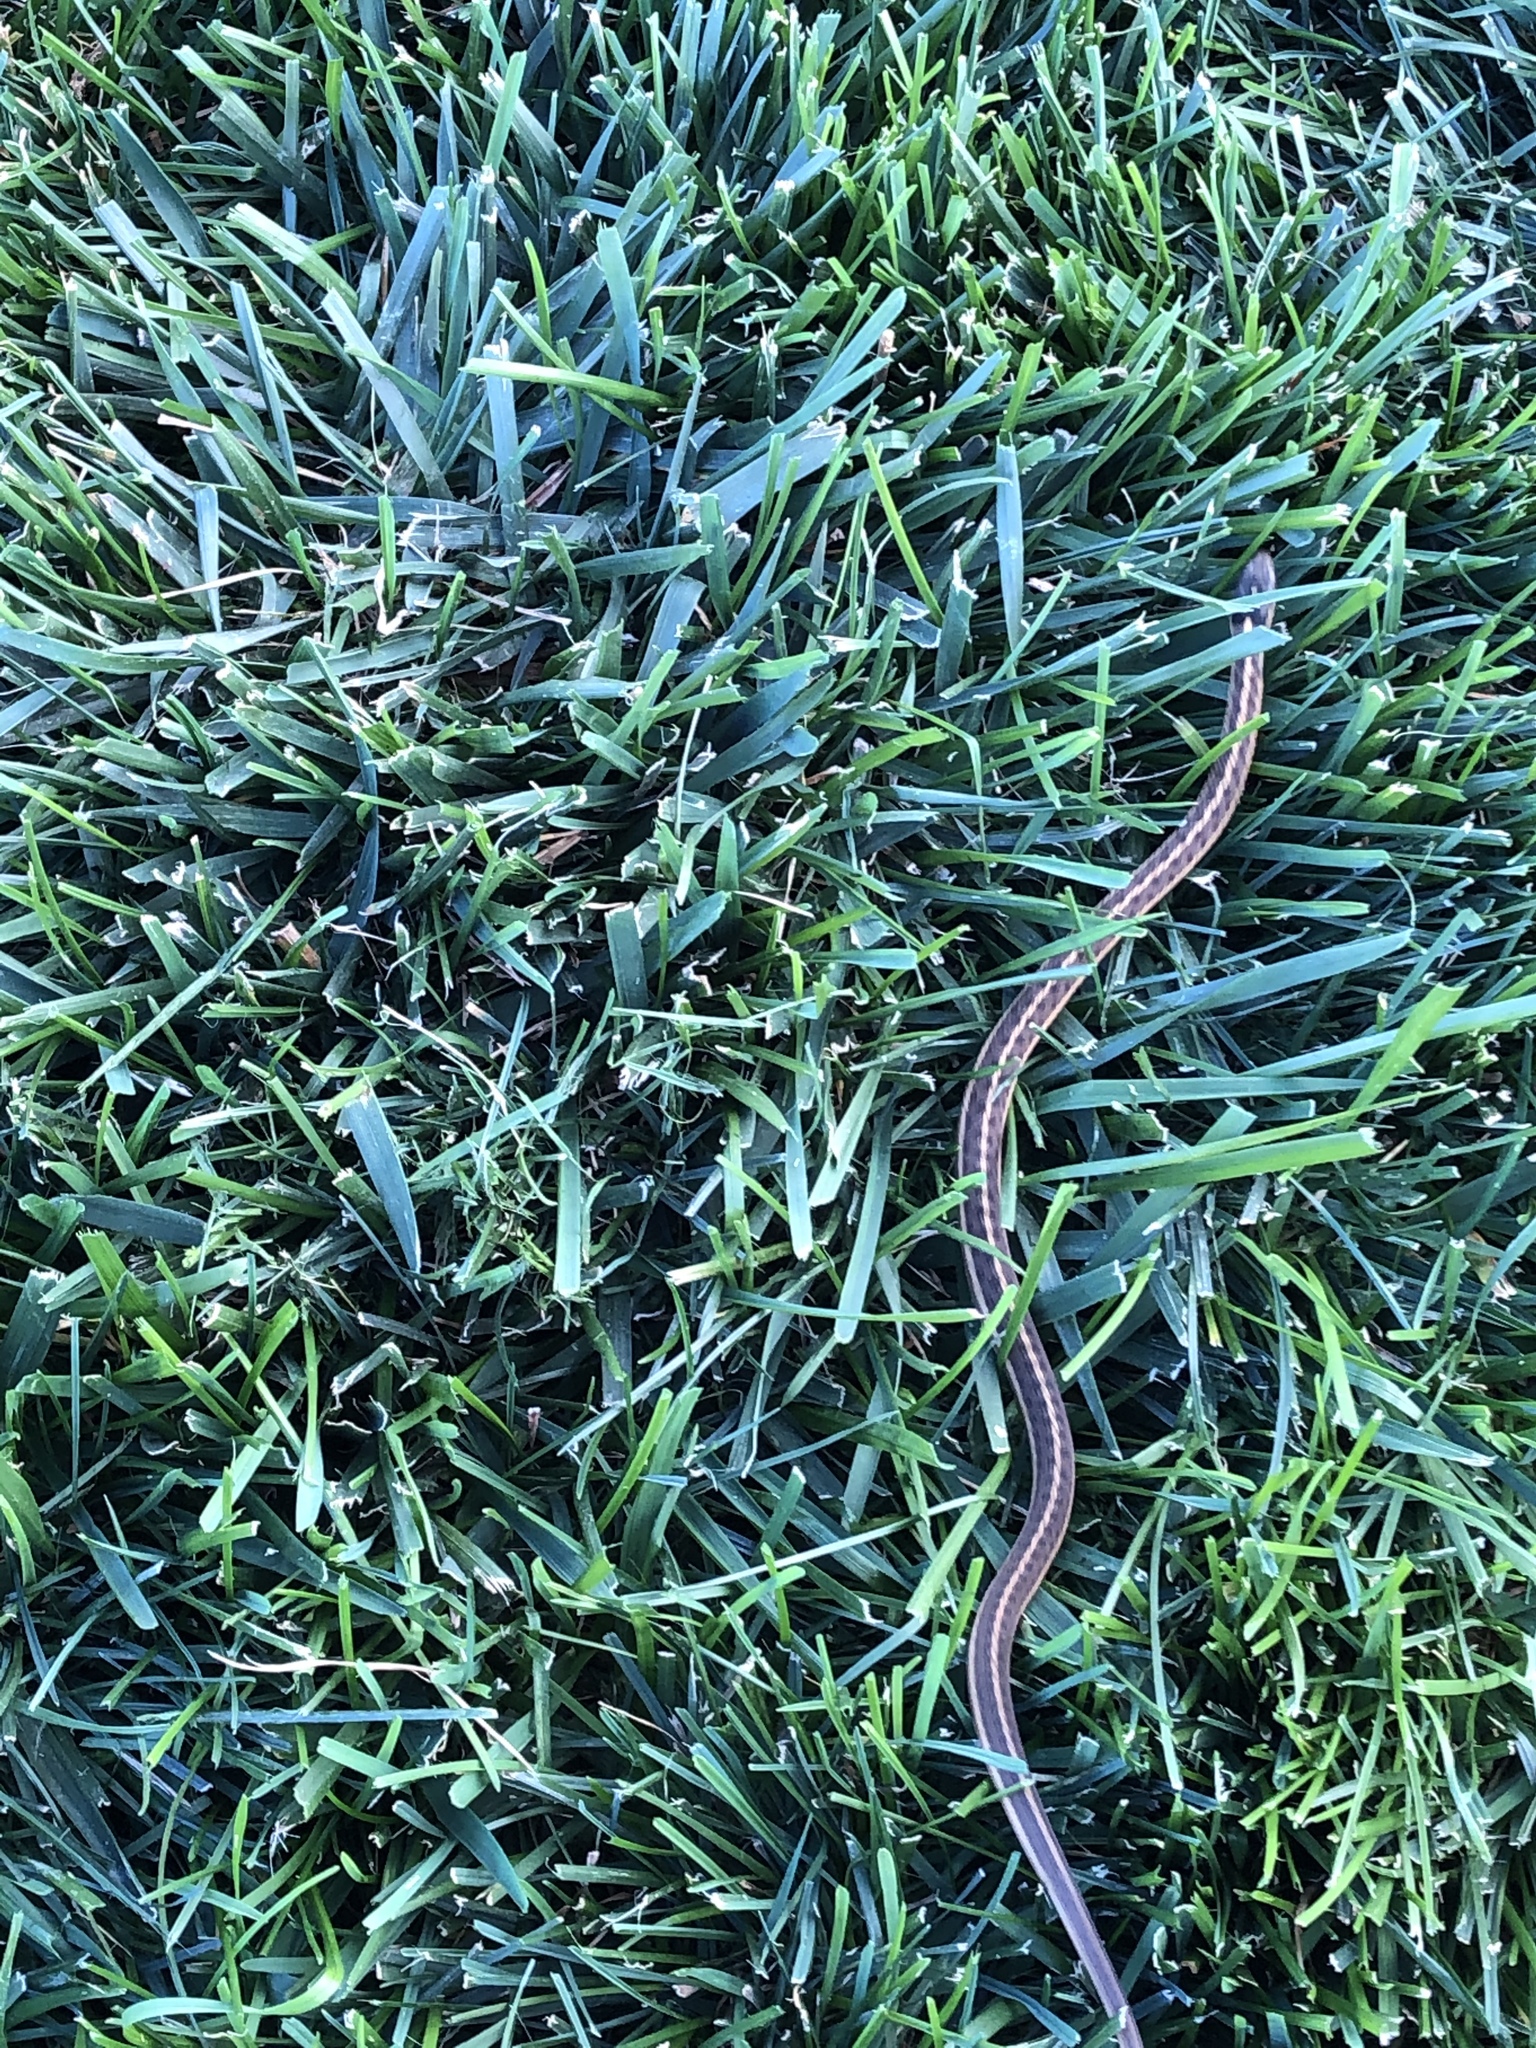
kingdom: Animalia
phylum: Chordata
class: Squamata
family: Colubridae
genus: Thamnophis
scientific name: Thamnophis elegans
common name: Western terrestrial garter snake
